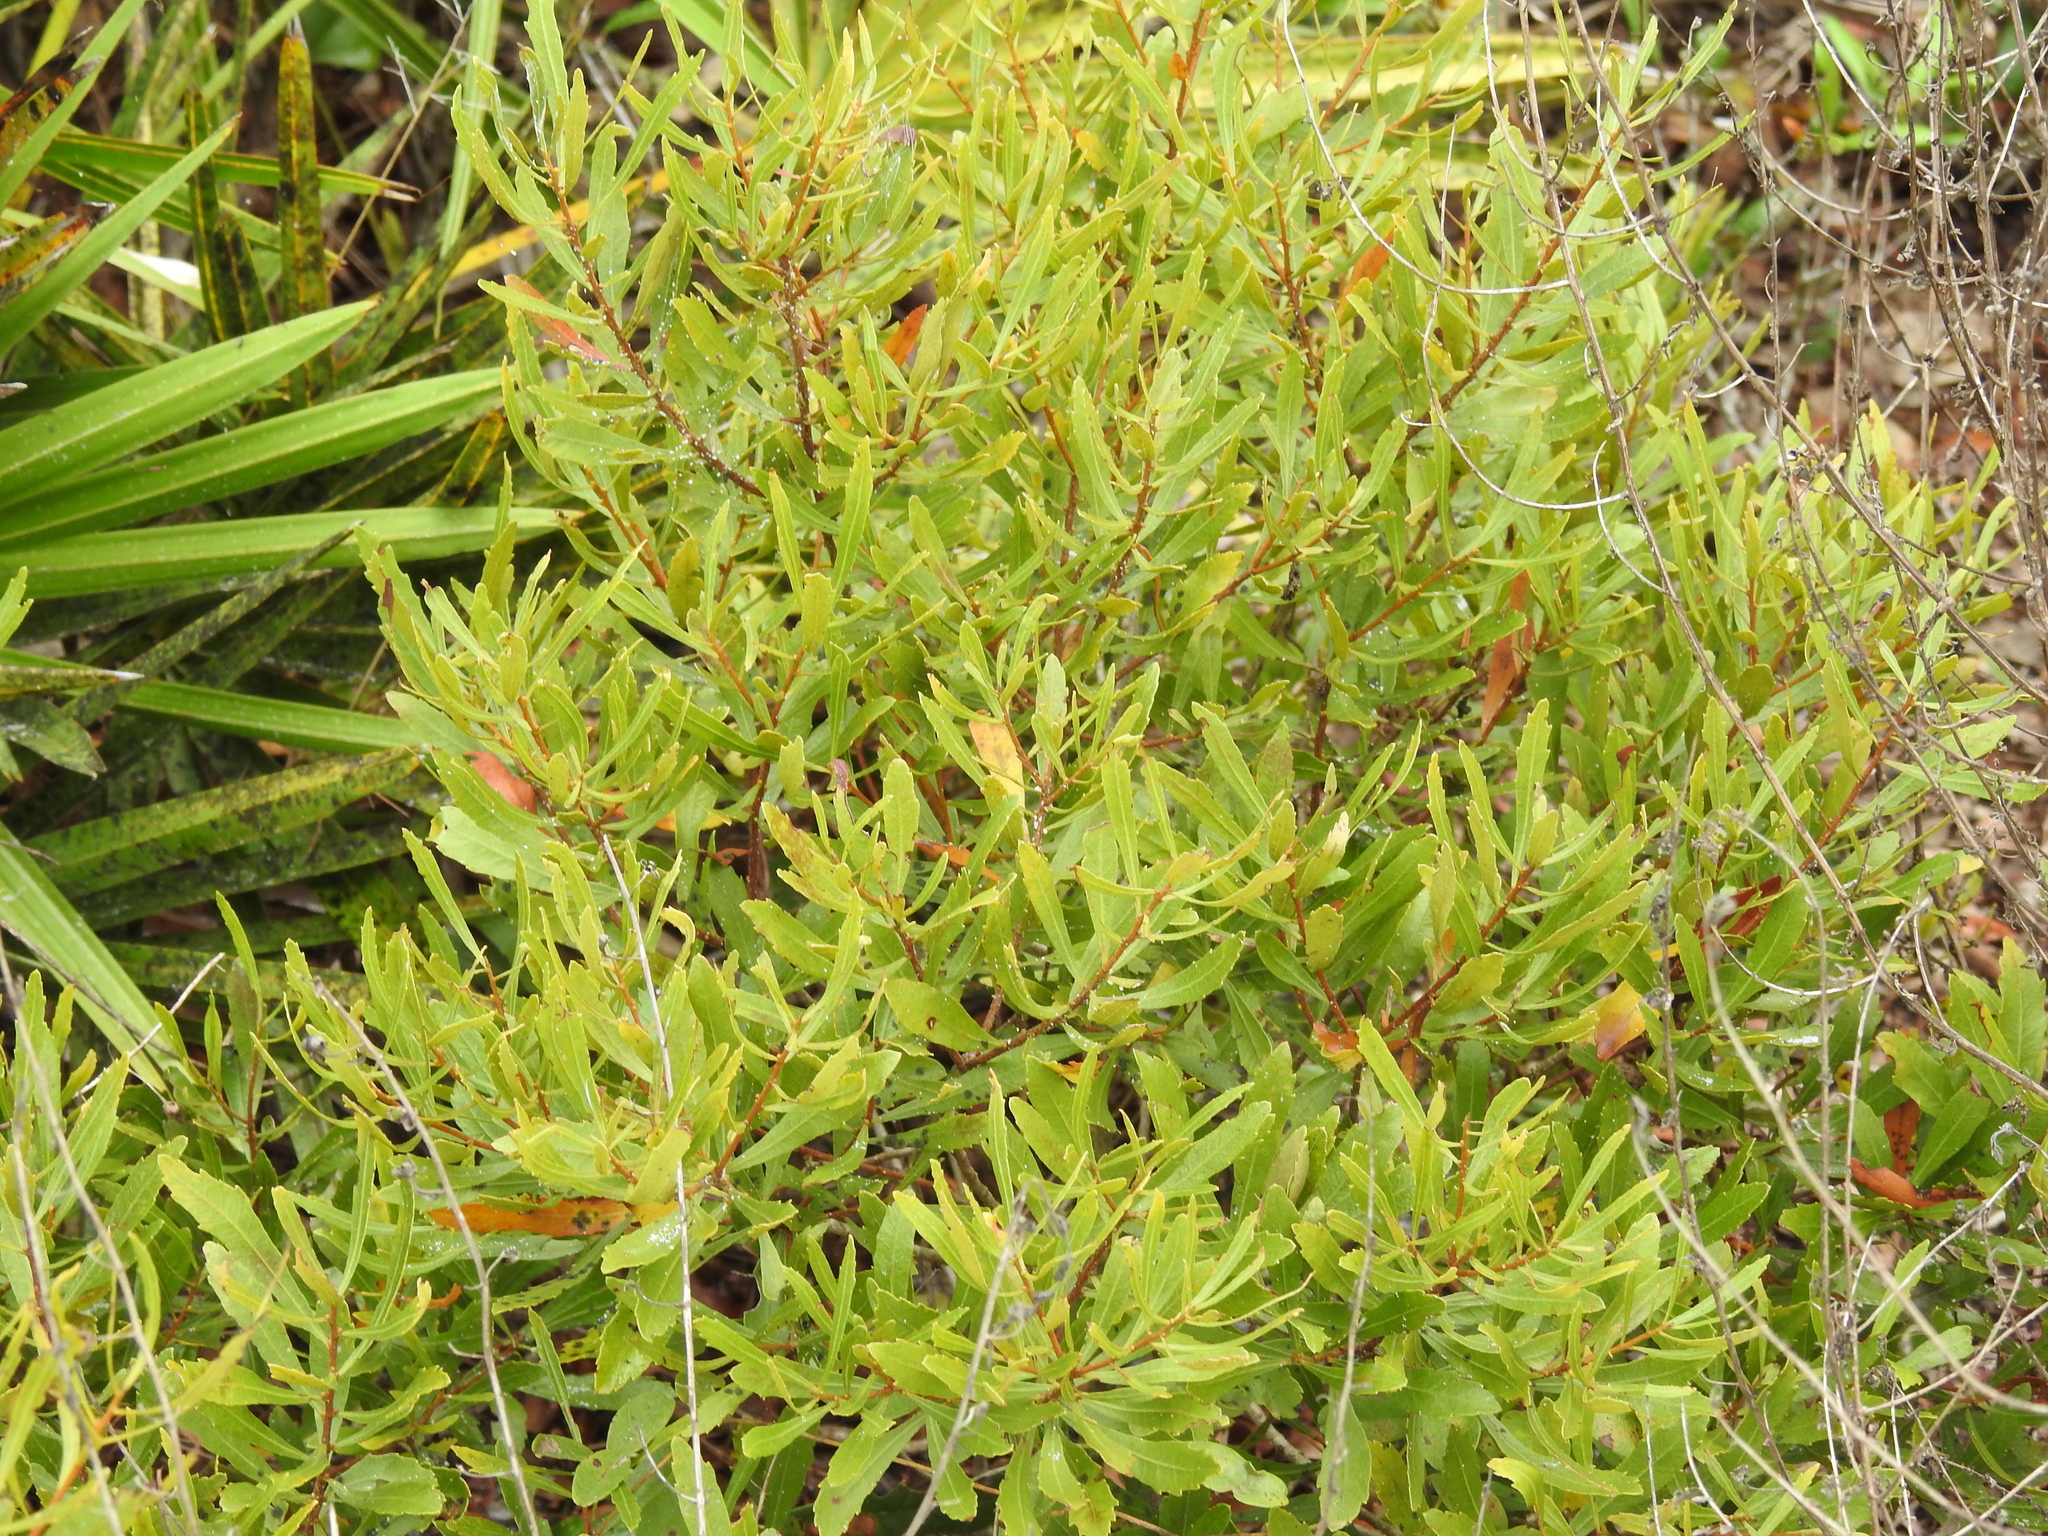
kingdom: Plantae
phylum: Tracheophyta
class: Magnoliopsida
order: Fagales
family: Myricaceae
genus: Morella
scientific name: Morella cerifera
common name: Wax myrtle
